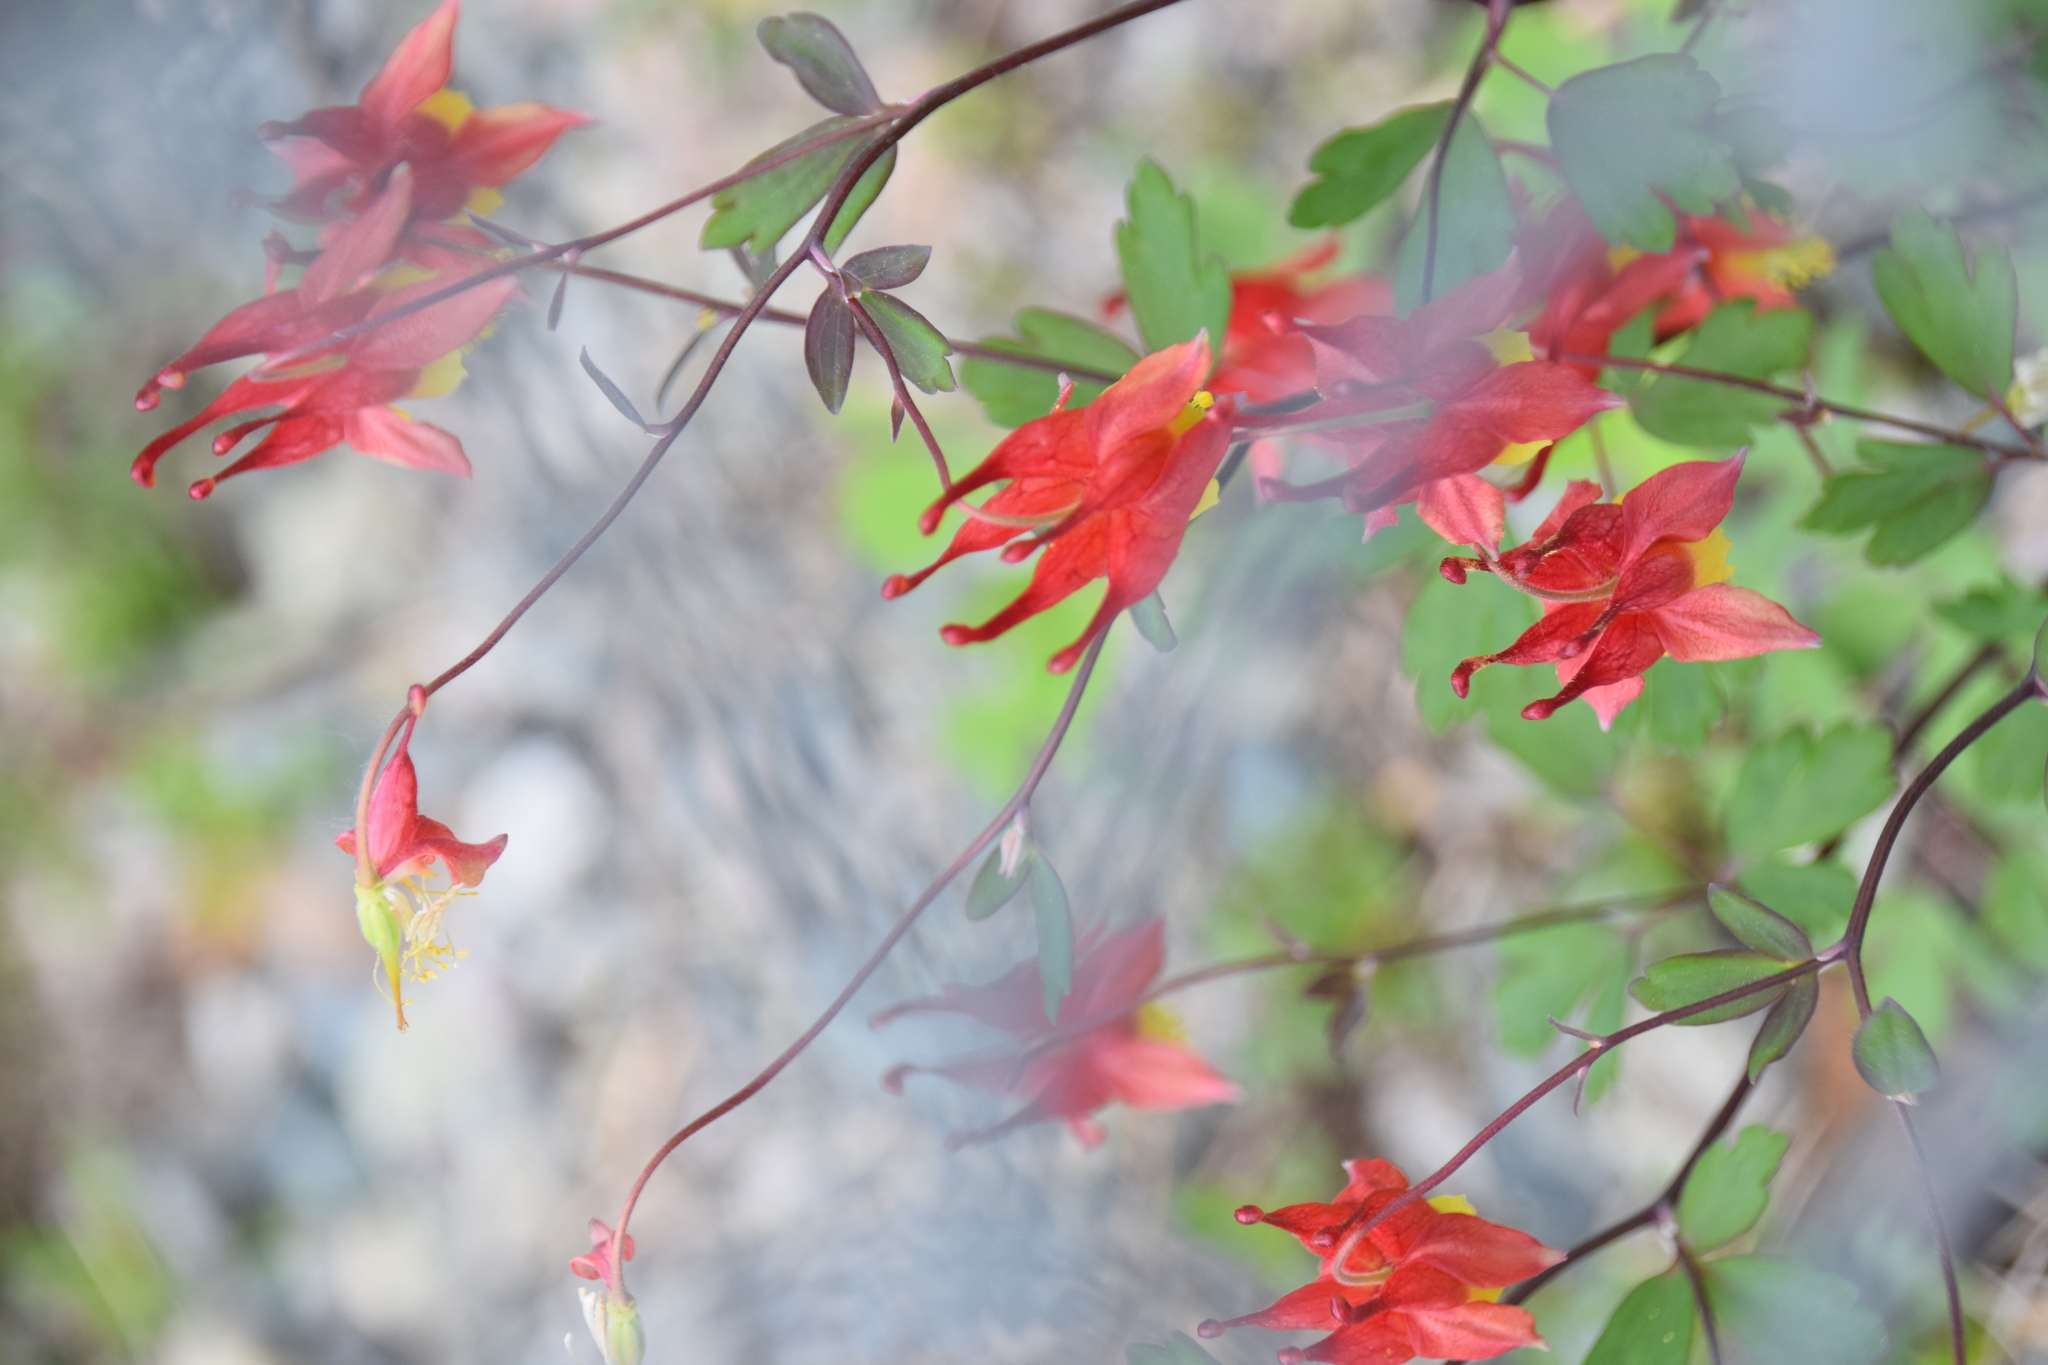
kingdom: Plantae
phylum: Tracheophyta
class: Magnoliopsida
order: Ranunculales
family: Ranunculaceae
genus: Aquilegia
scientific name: Aquilegia canadensis
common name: American columbine
